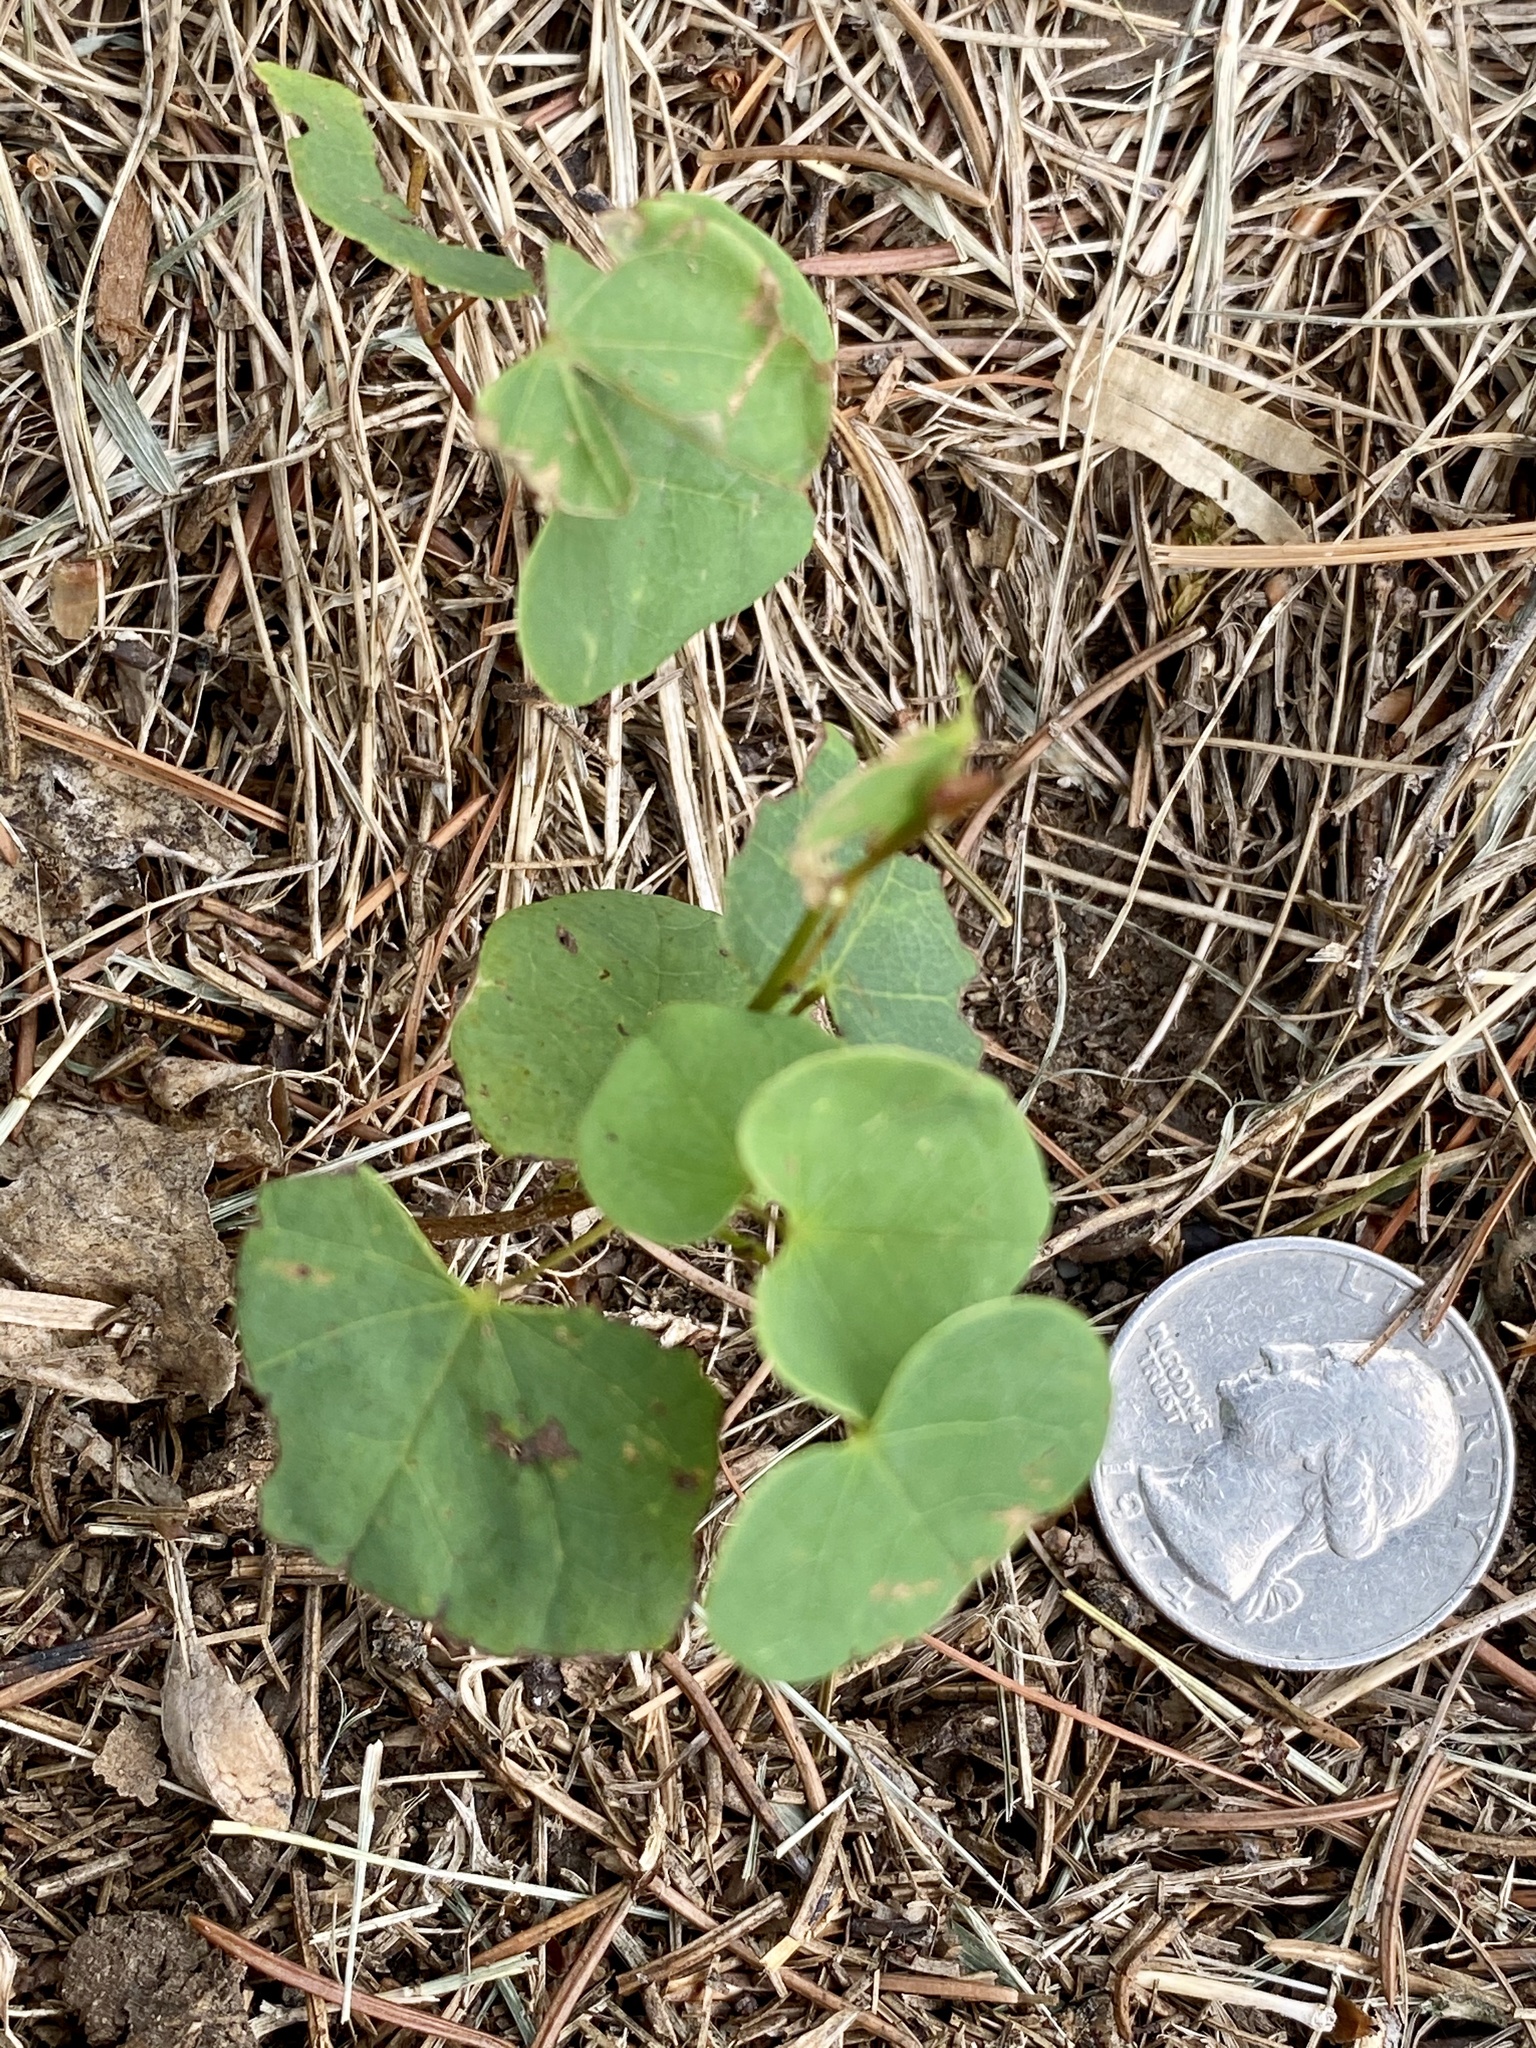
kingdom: Plantae
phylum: Tracheophyta
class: Magnoliopsida
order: Fabales
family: Fabaceae
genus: Cercis
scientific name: Cercis canadensis
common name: Eastern redbud
